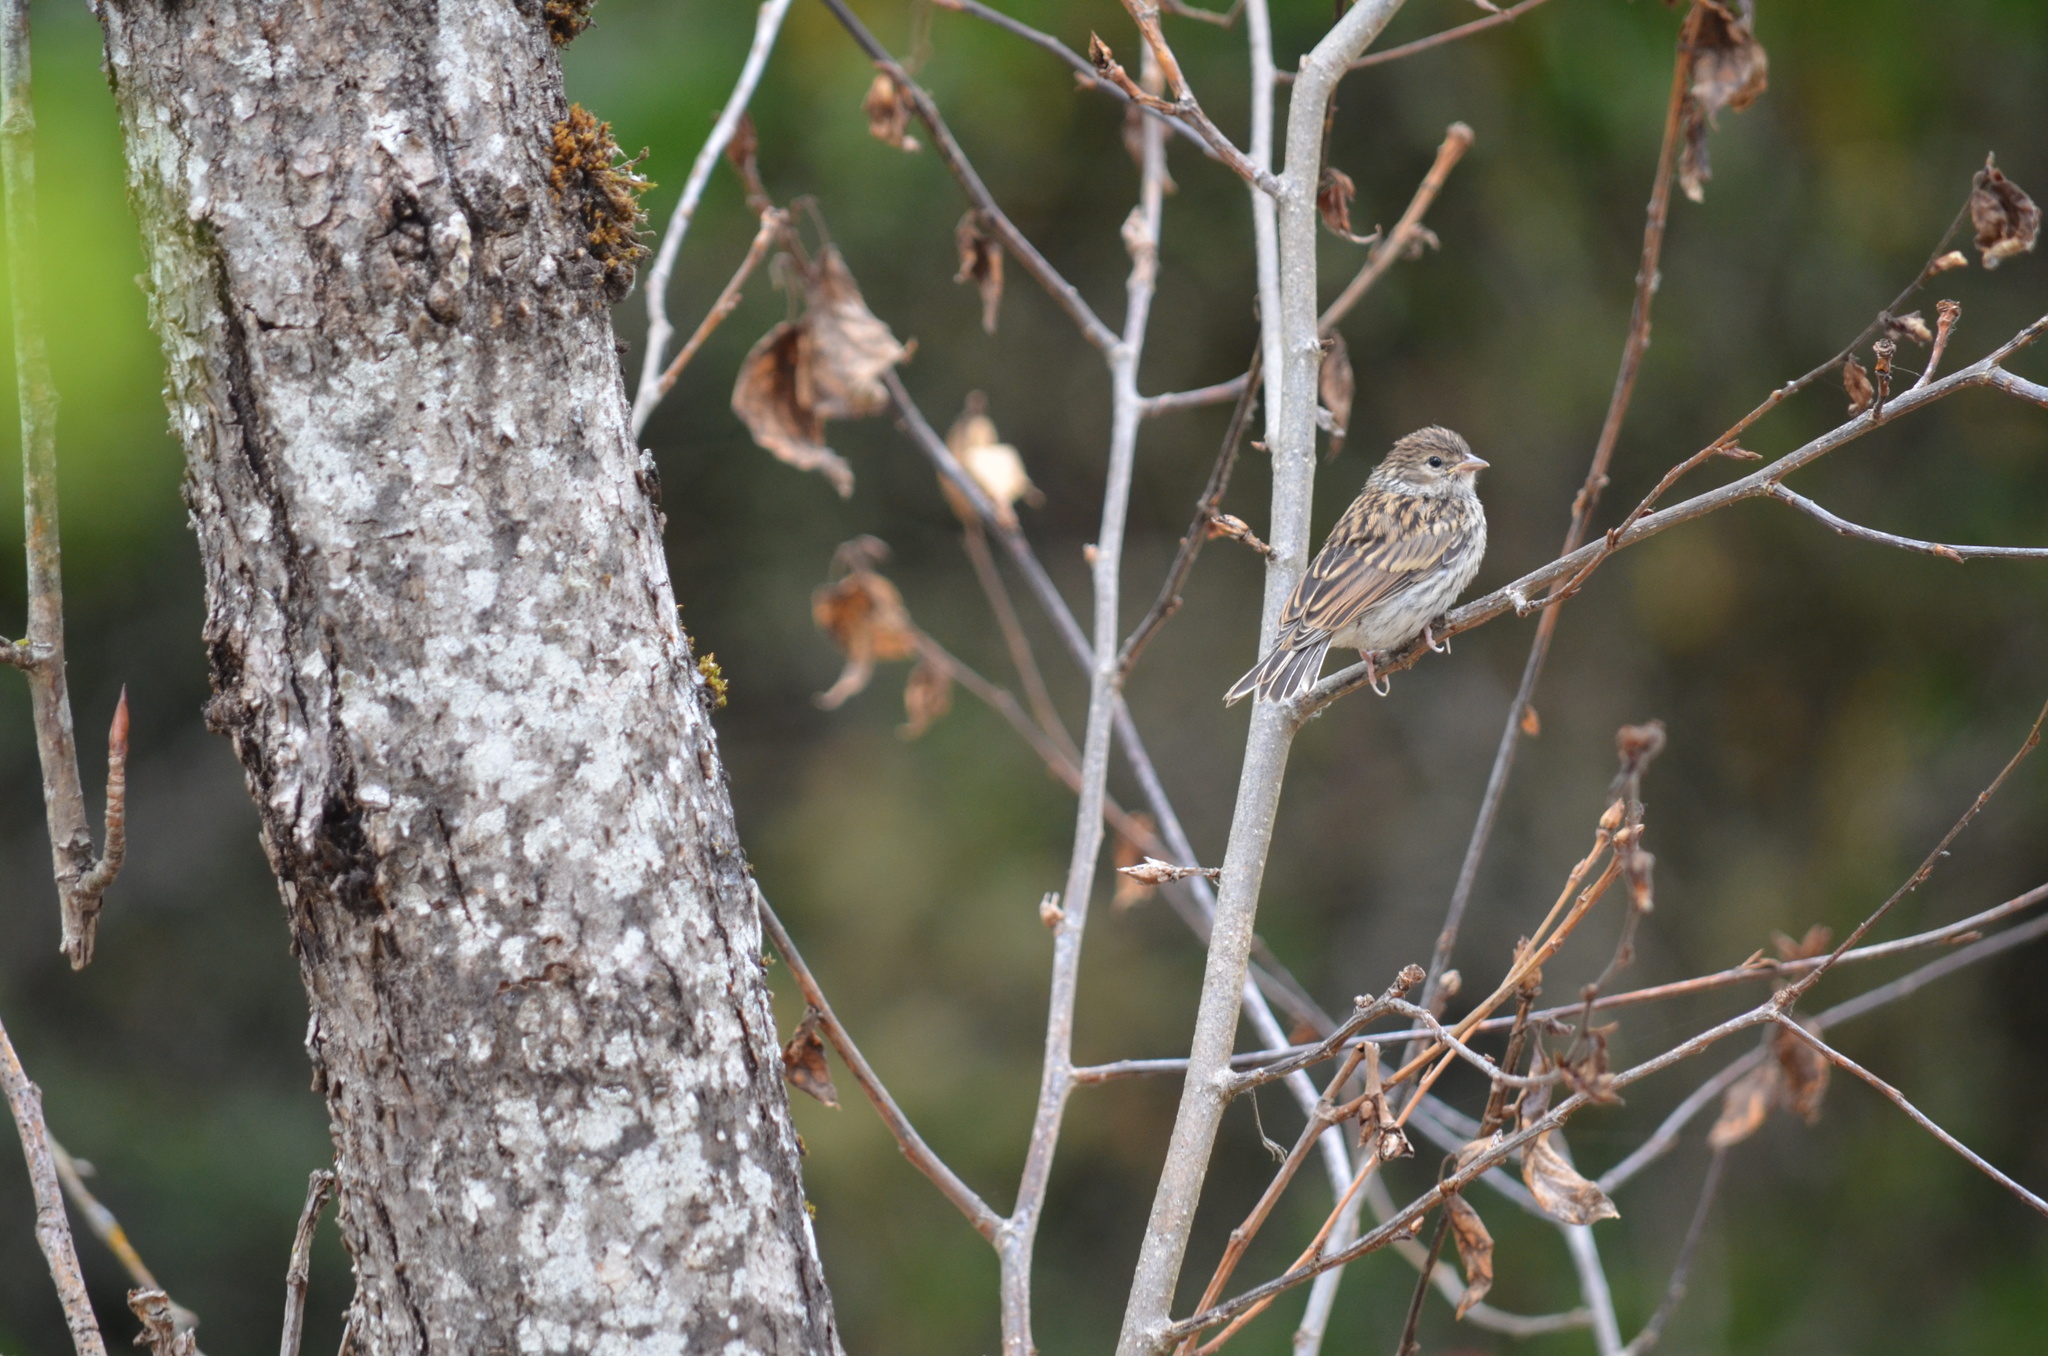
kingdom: Animalia
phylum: Chordata
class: Aves
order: Passeriformes
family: Passerellidae
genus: Spizella
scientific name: Spizella passerina
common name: Chipping sparrow
